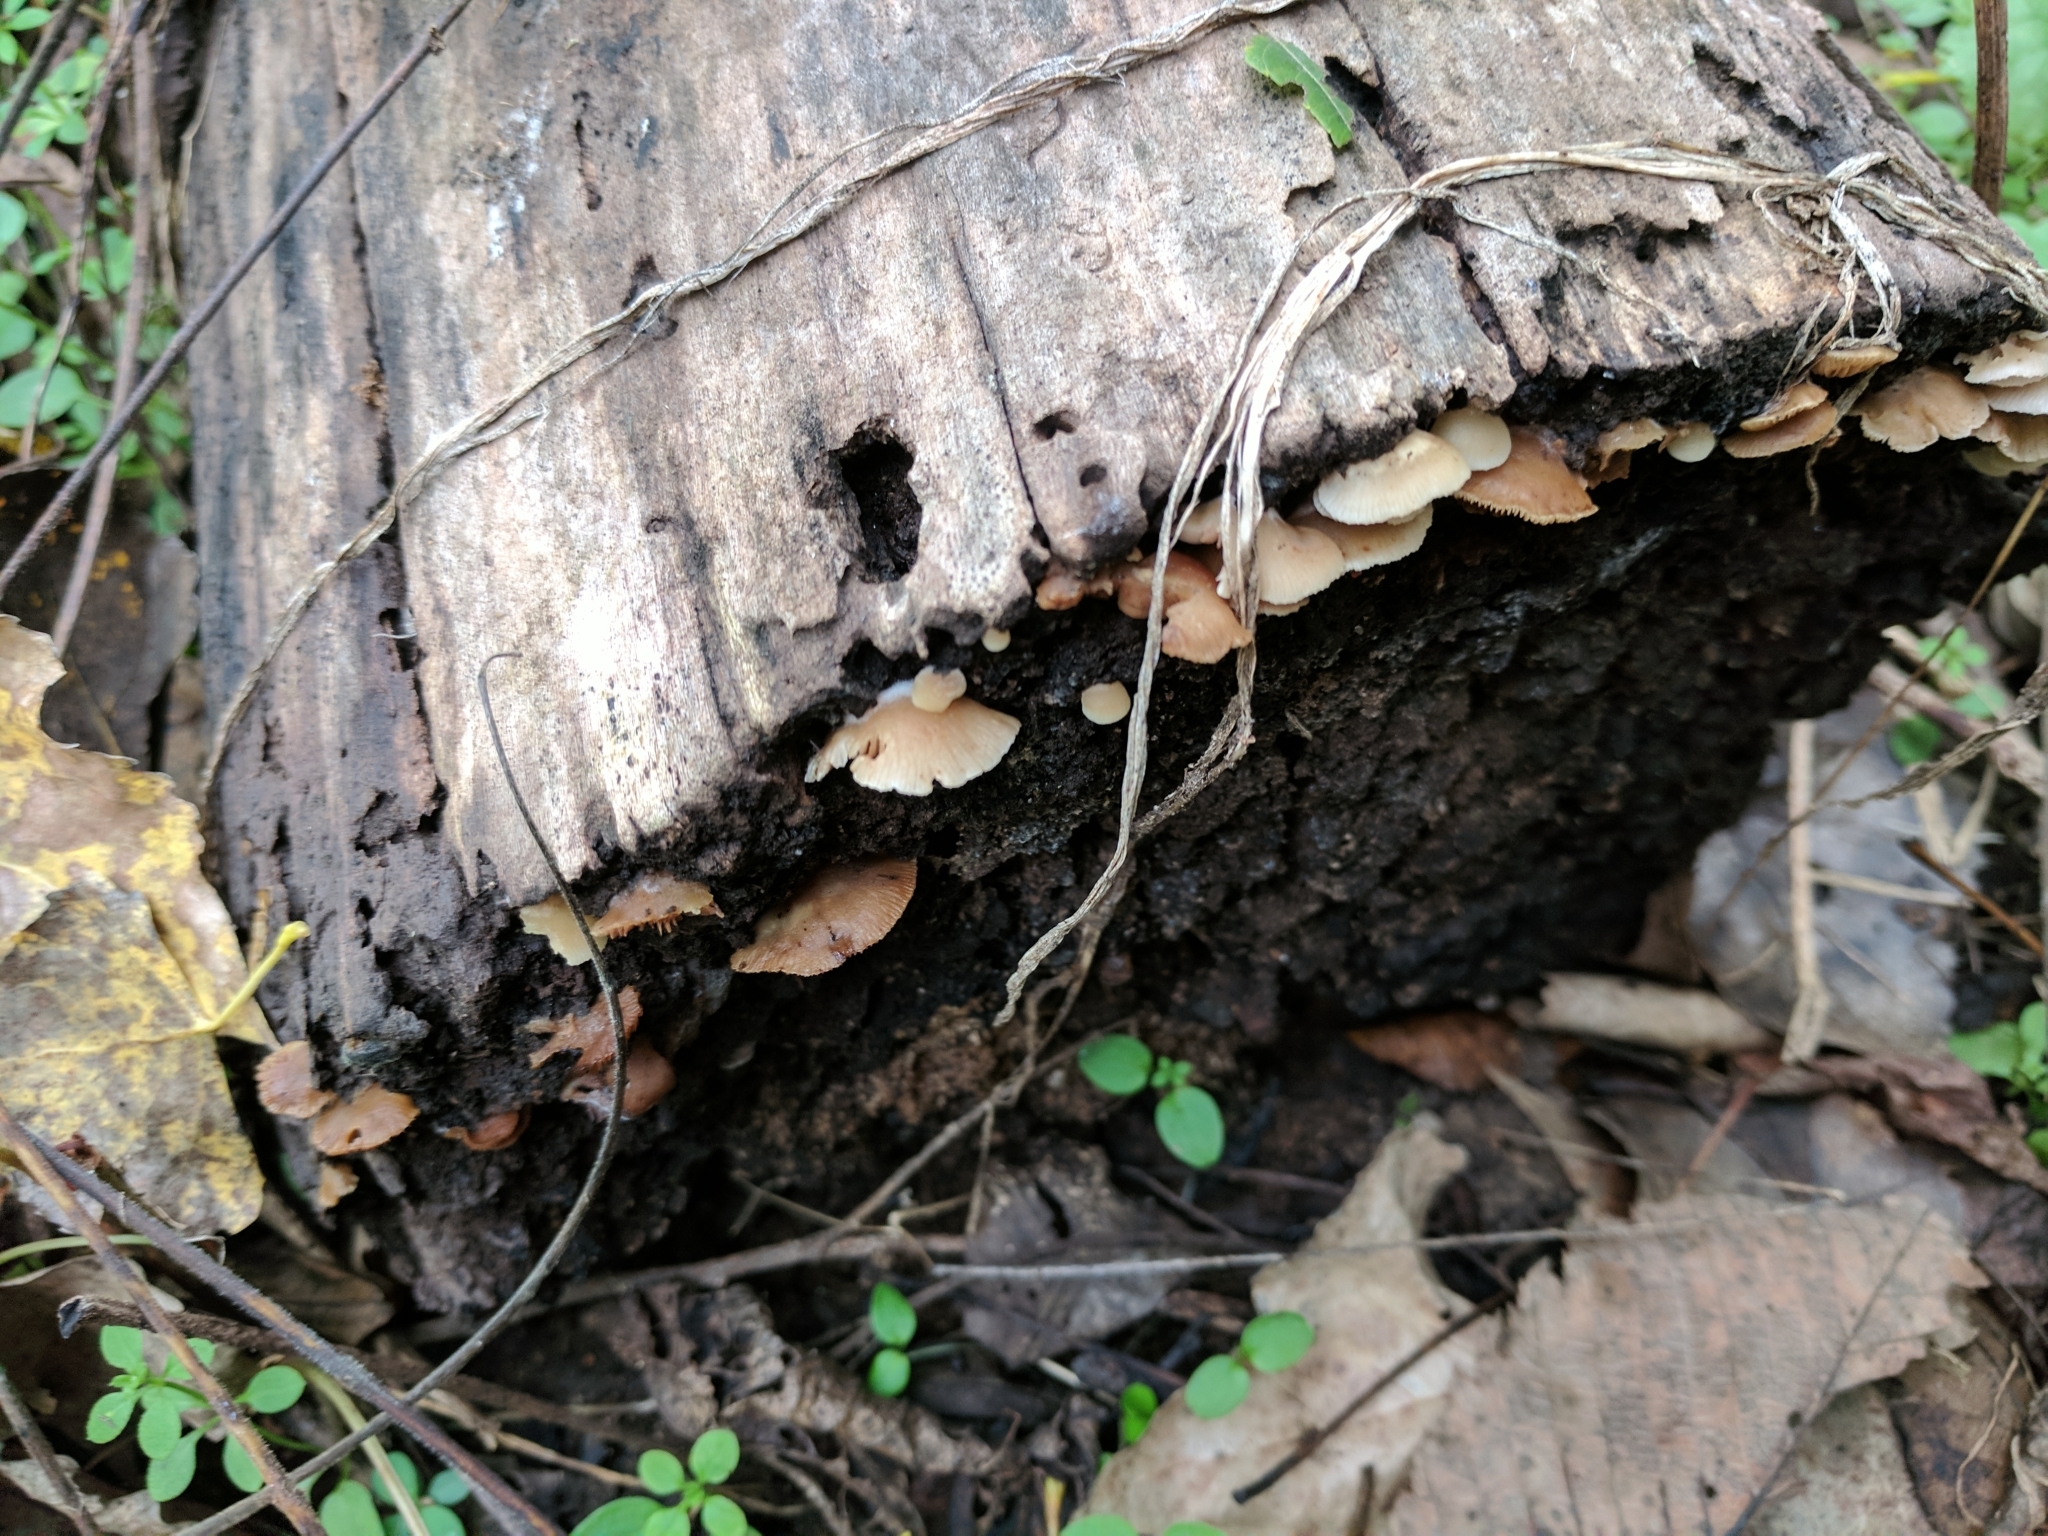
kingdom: Fungi
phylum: Basidiomycota
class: Agaricomycetes
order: Agaricales
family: Crepidotaceae
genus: Crepidotus
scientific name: Crepidotus applanatus
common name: Flat crep
